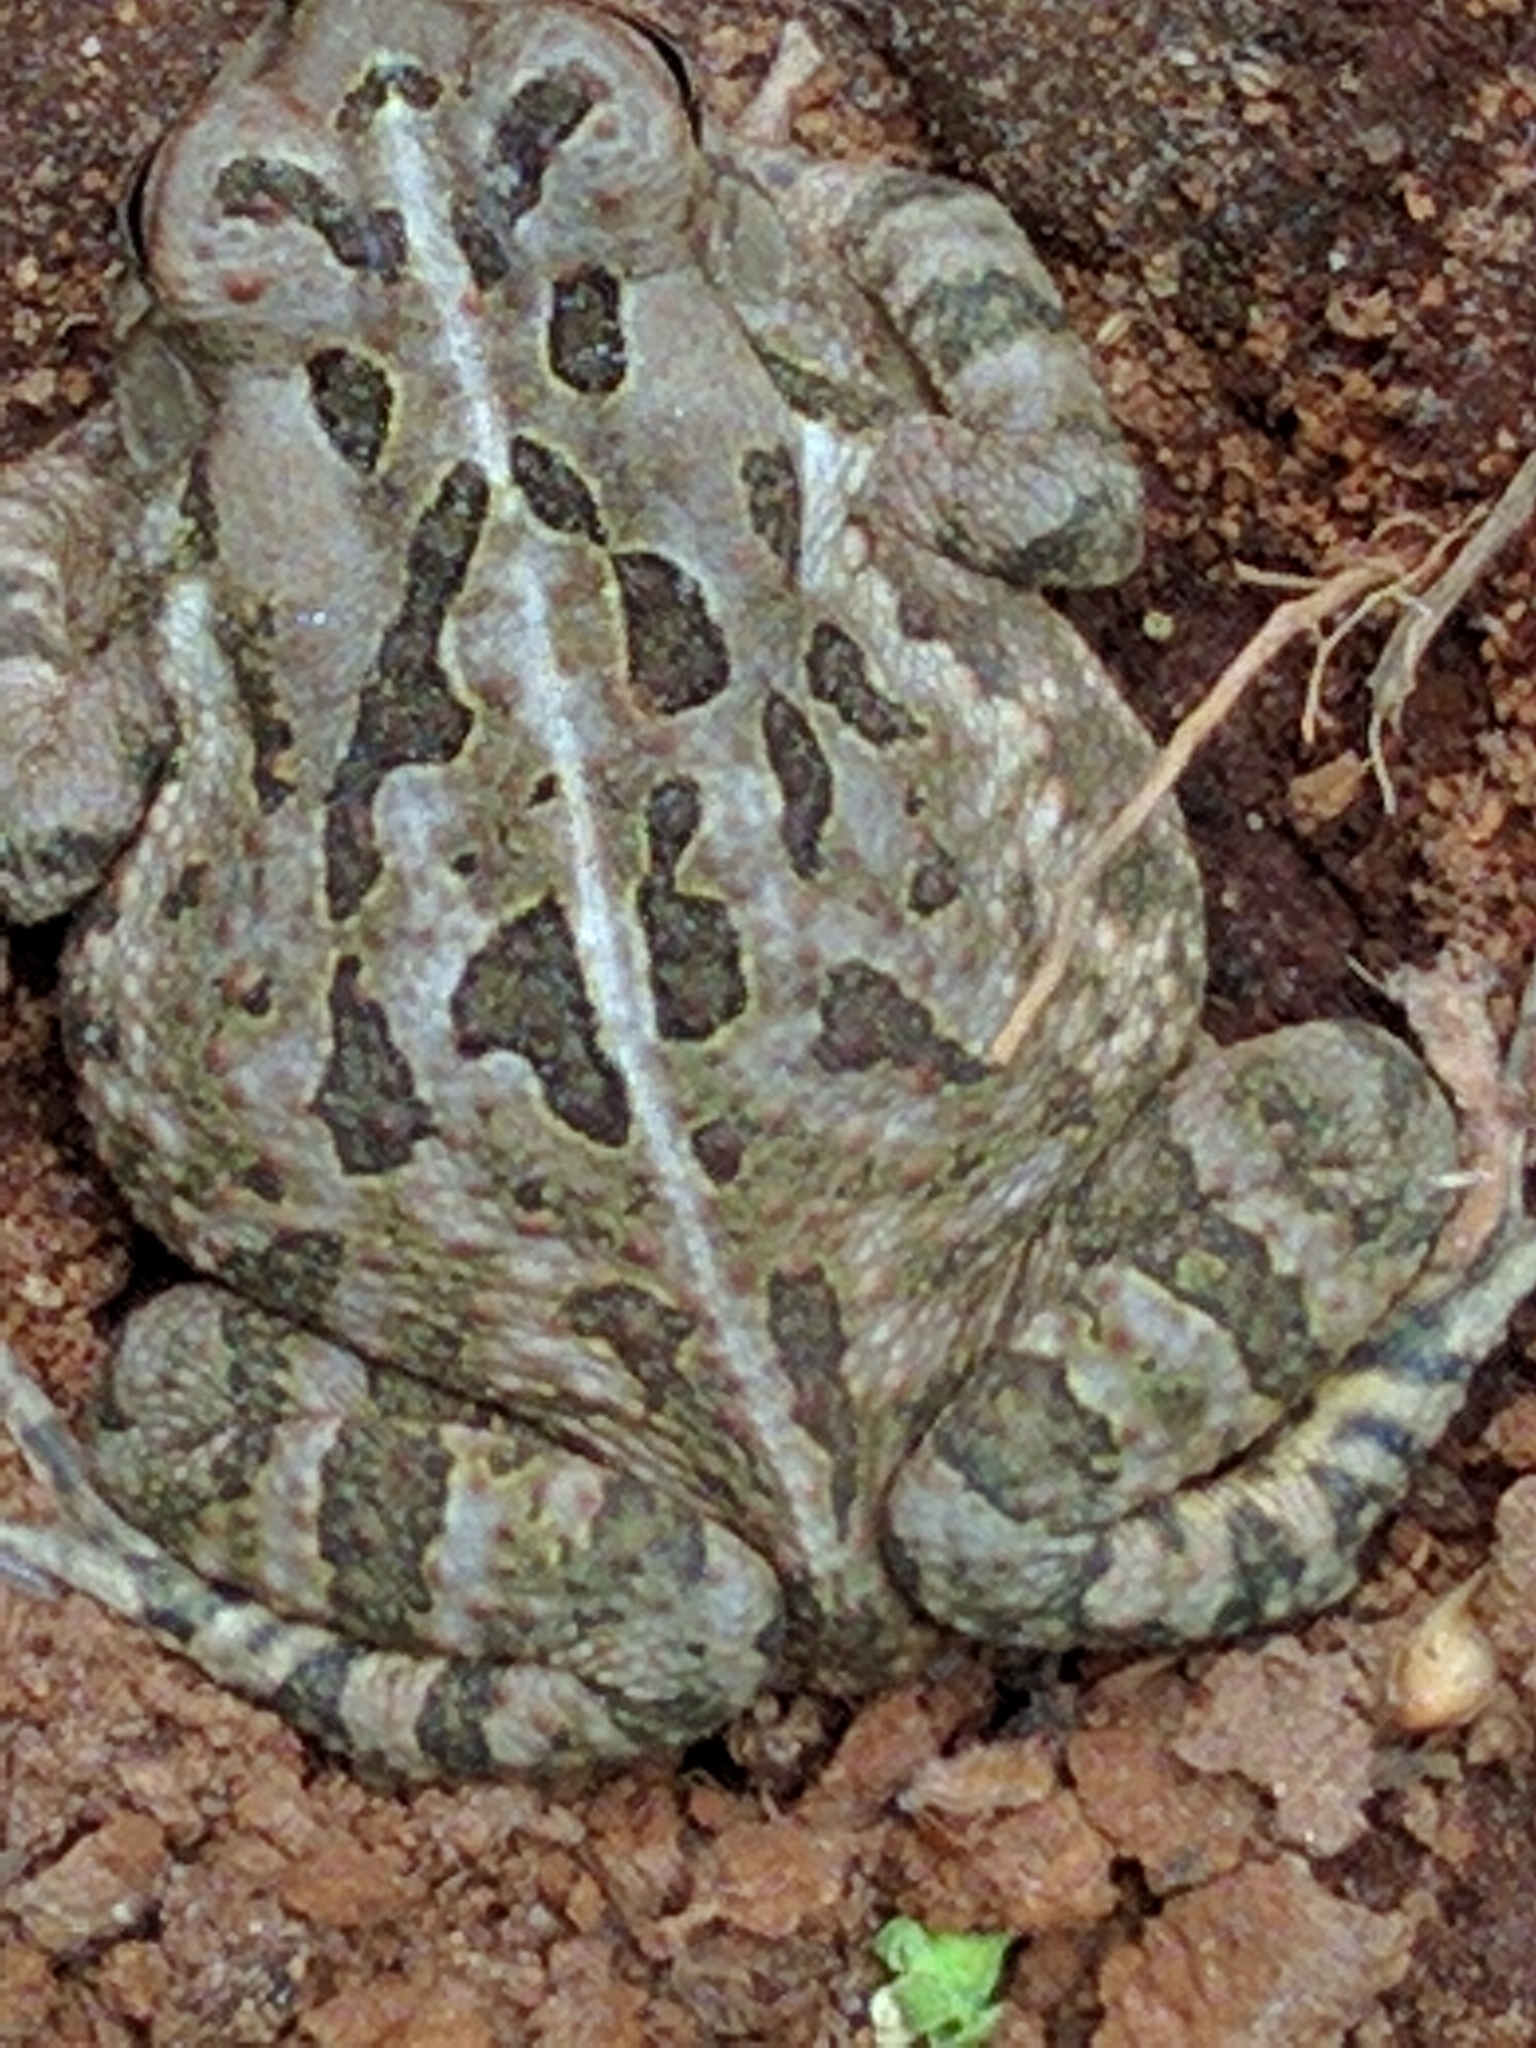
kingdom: Animalia
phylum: Chordata
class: Amphibia
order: Anura
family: Bufonidae
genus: Anaxyrus
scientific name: Anaxyrus fowleri
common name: Fowler's toad
